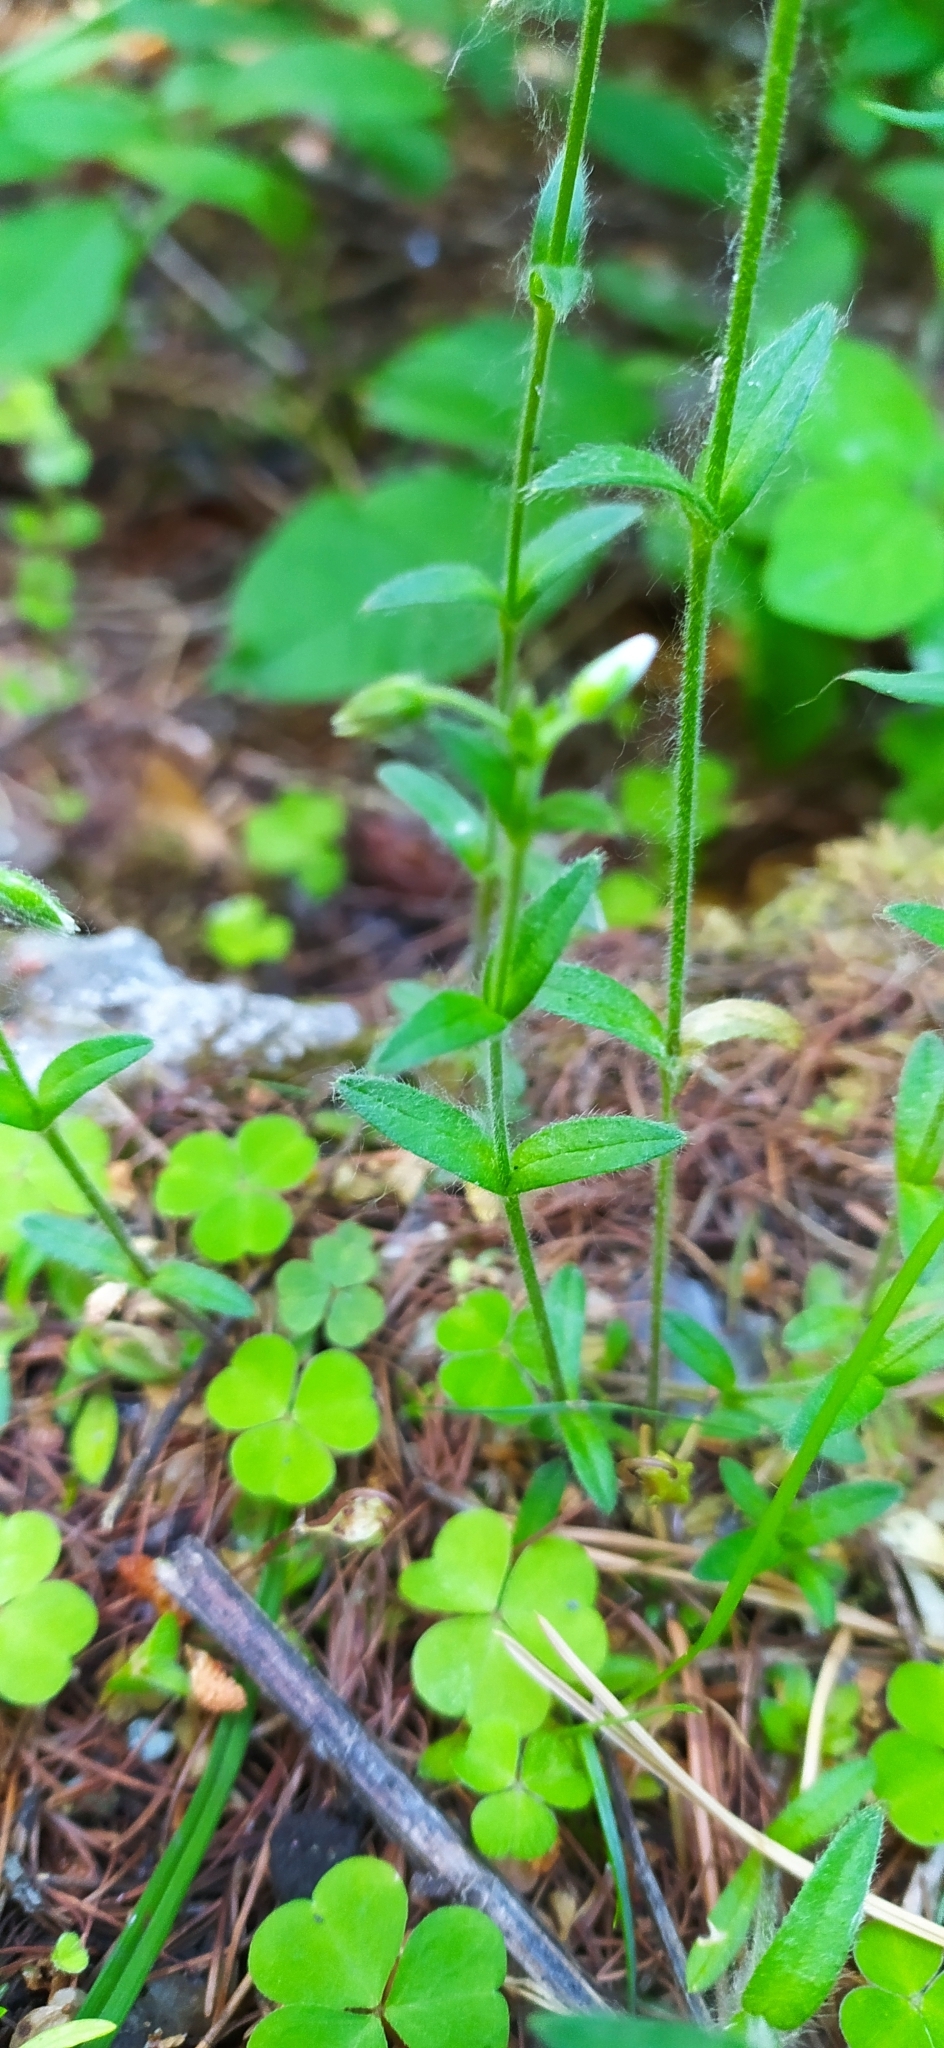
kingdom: Plantae
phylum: Tracheophyta
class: Magnoliopsida
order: Caryophyllales
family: Caryophyllaceae
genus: Cerastium
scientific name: Cerastium holosteoides
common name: Big chickweed
